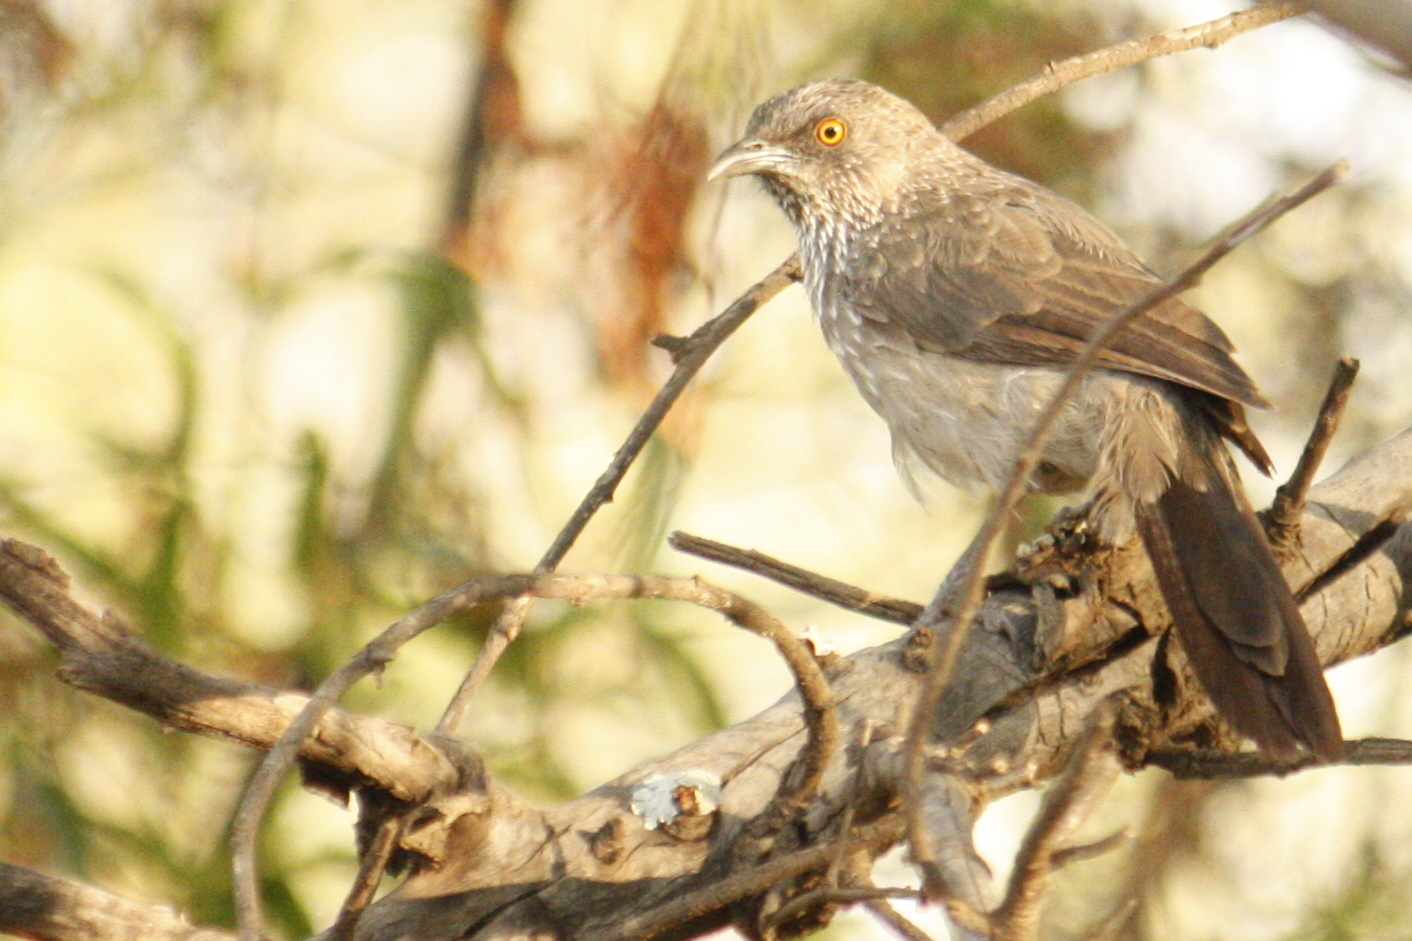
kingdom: Animalia
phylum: Chordata
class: Aves
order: Passeriformes
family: Leiothrichidae
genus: Turdoides
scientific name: Turdoides jardineii
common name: Arrow-marked babbler
